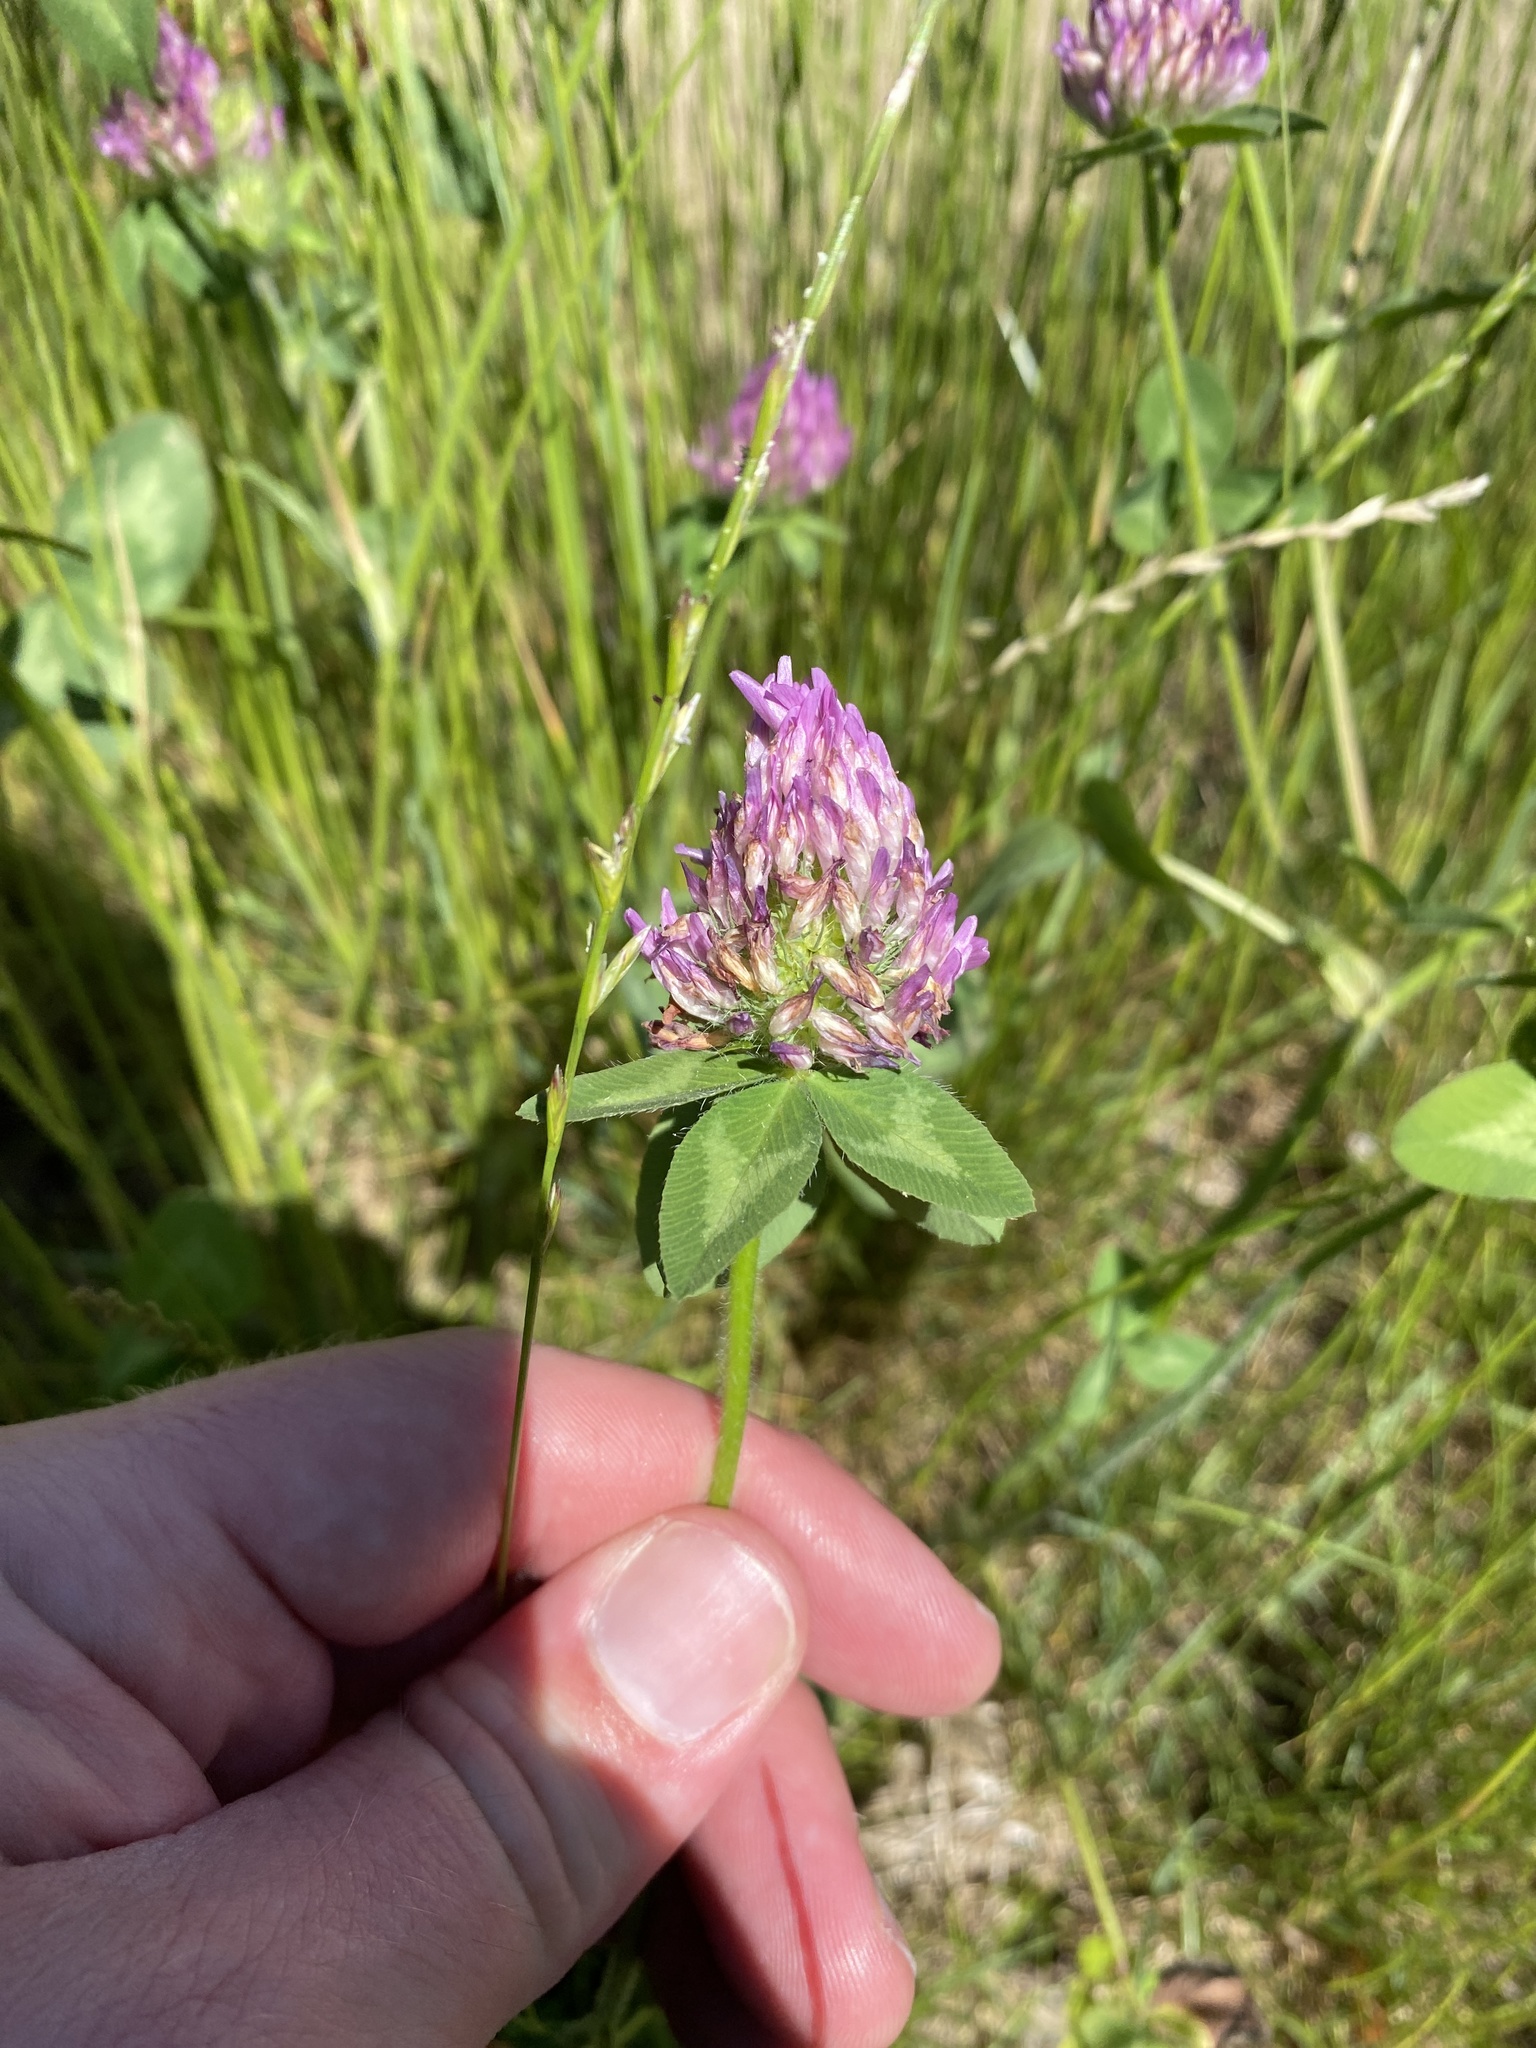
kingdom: Plantae
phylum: Tracheophyta
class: Magnoliopsida
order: Fabales
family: Fabaceae
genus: Trifolium
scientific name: Trifolium pratense
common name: Red clover
